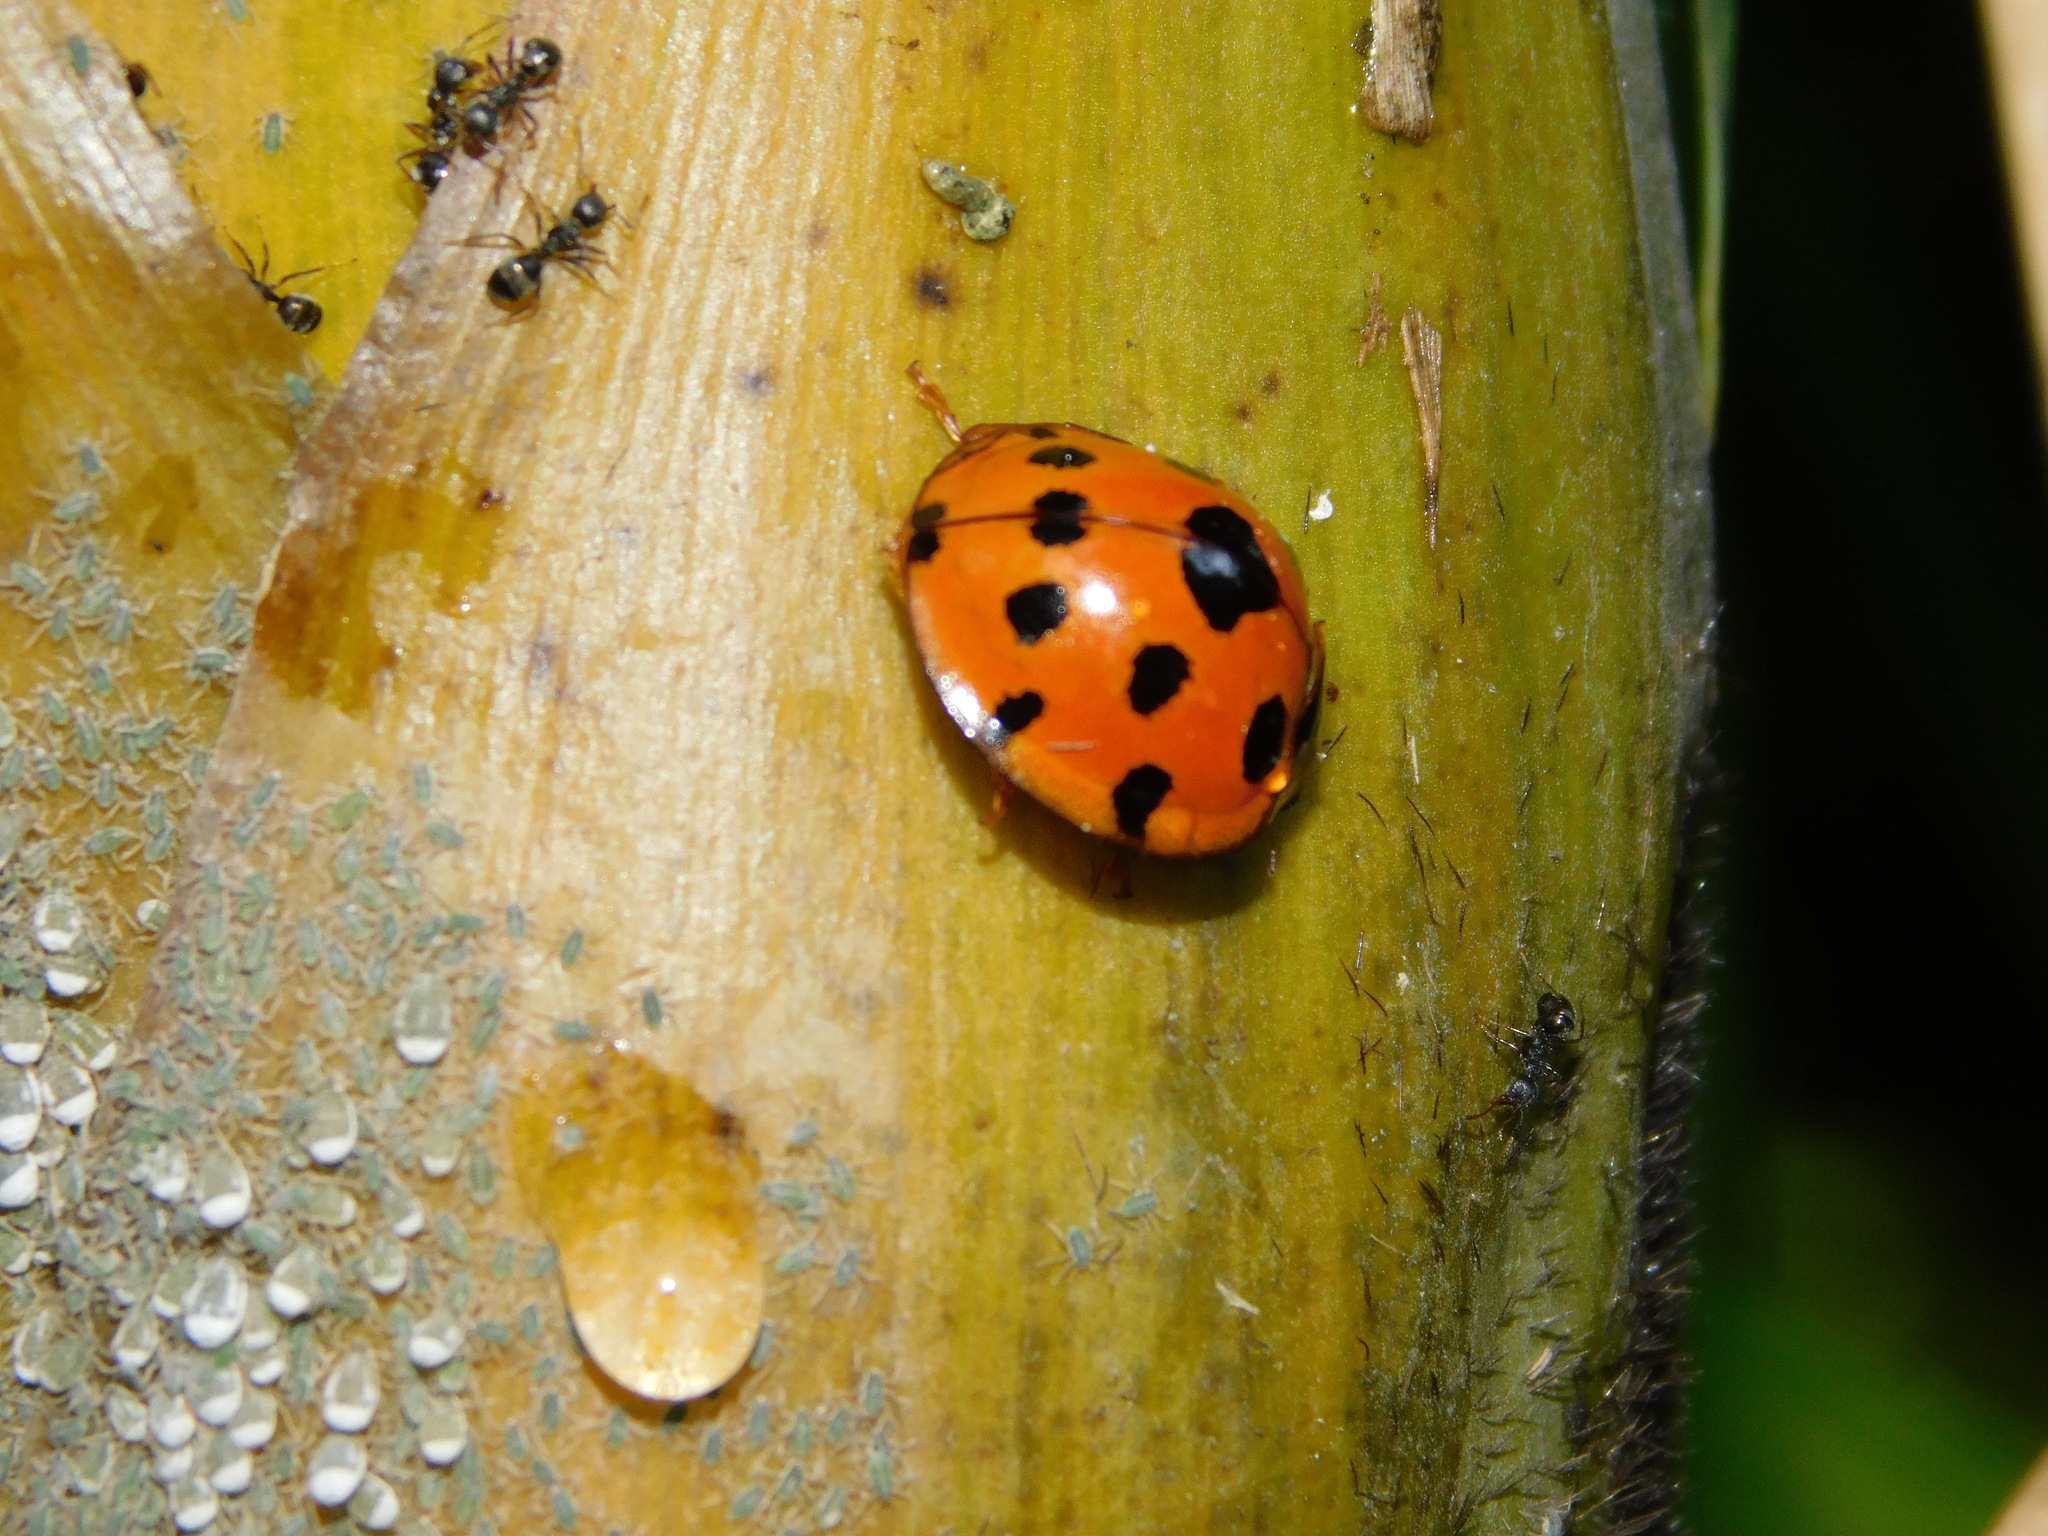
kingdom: Animalia
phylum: Arthropoda
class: Insecta
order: Coleoptera
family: Coccinellidae
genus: Synonycha
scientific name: Synonycha grandis
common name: Lady beetle
